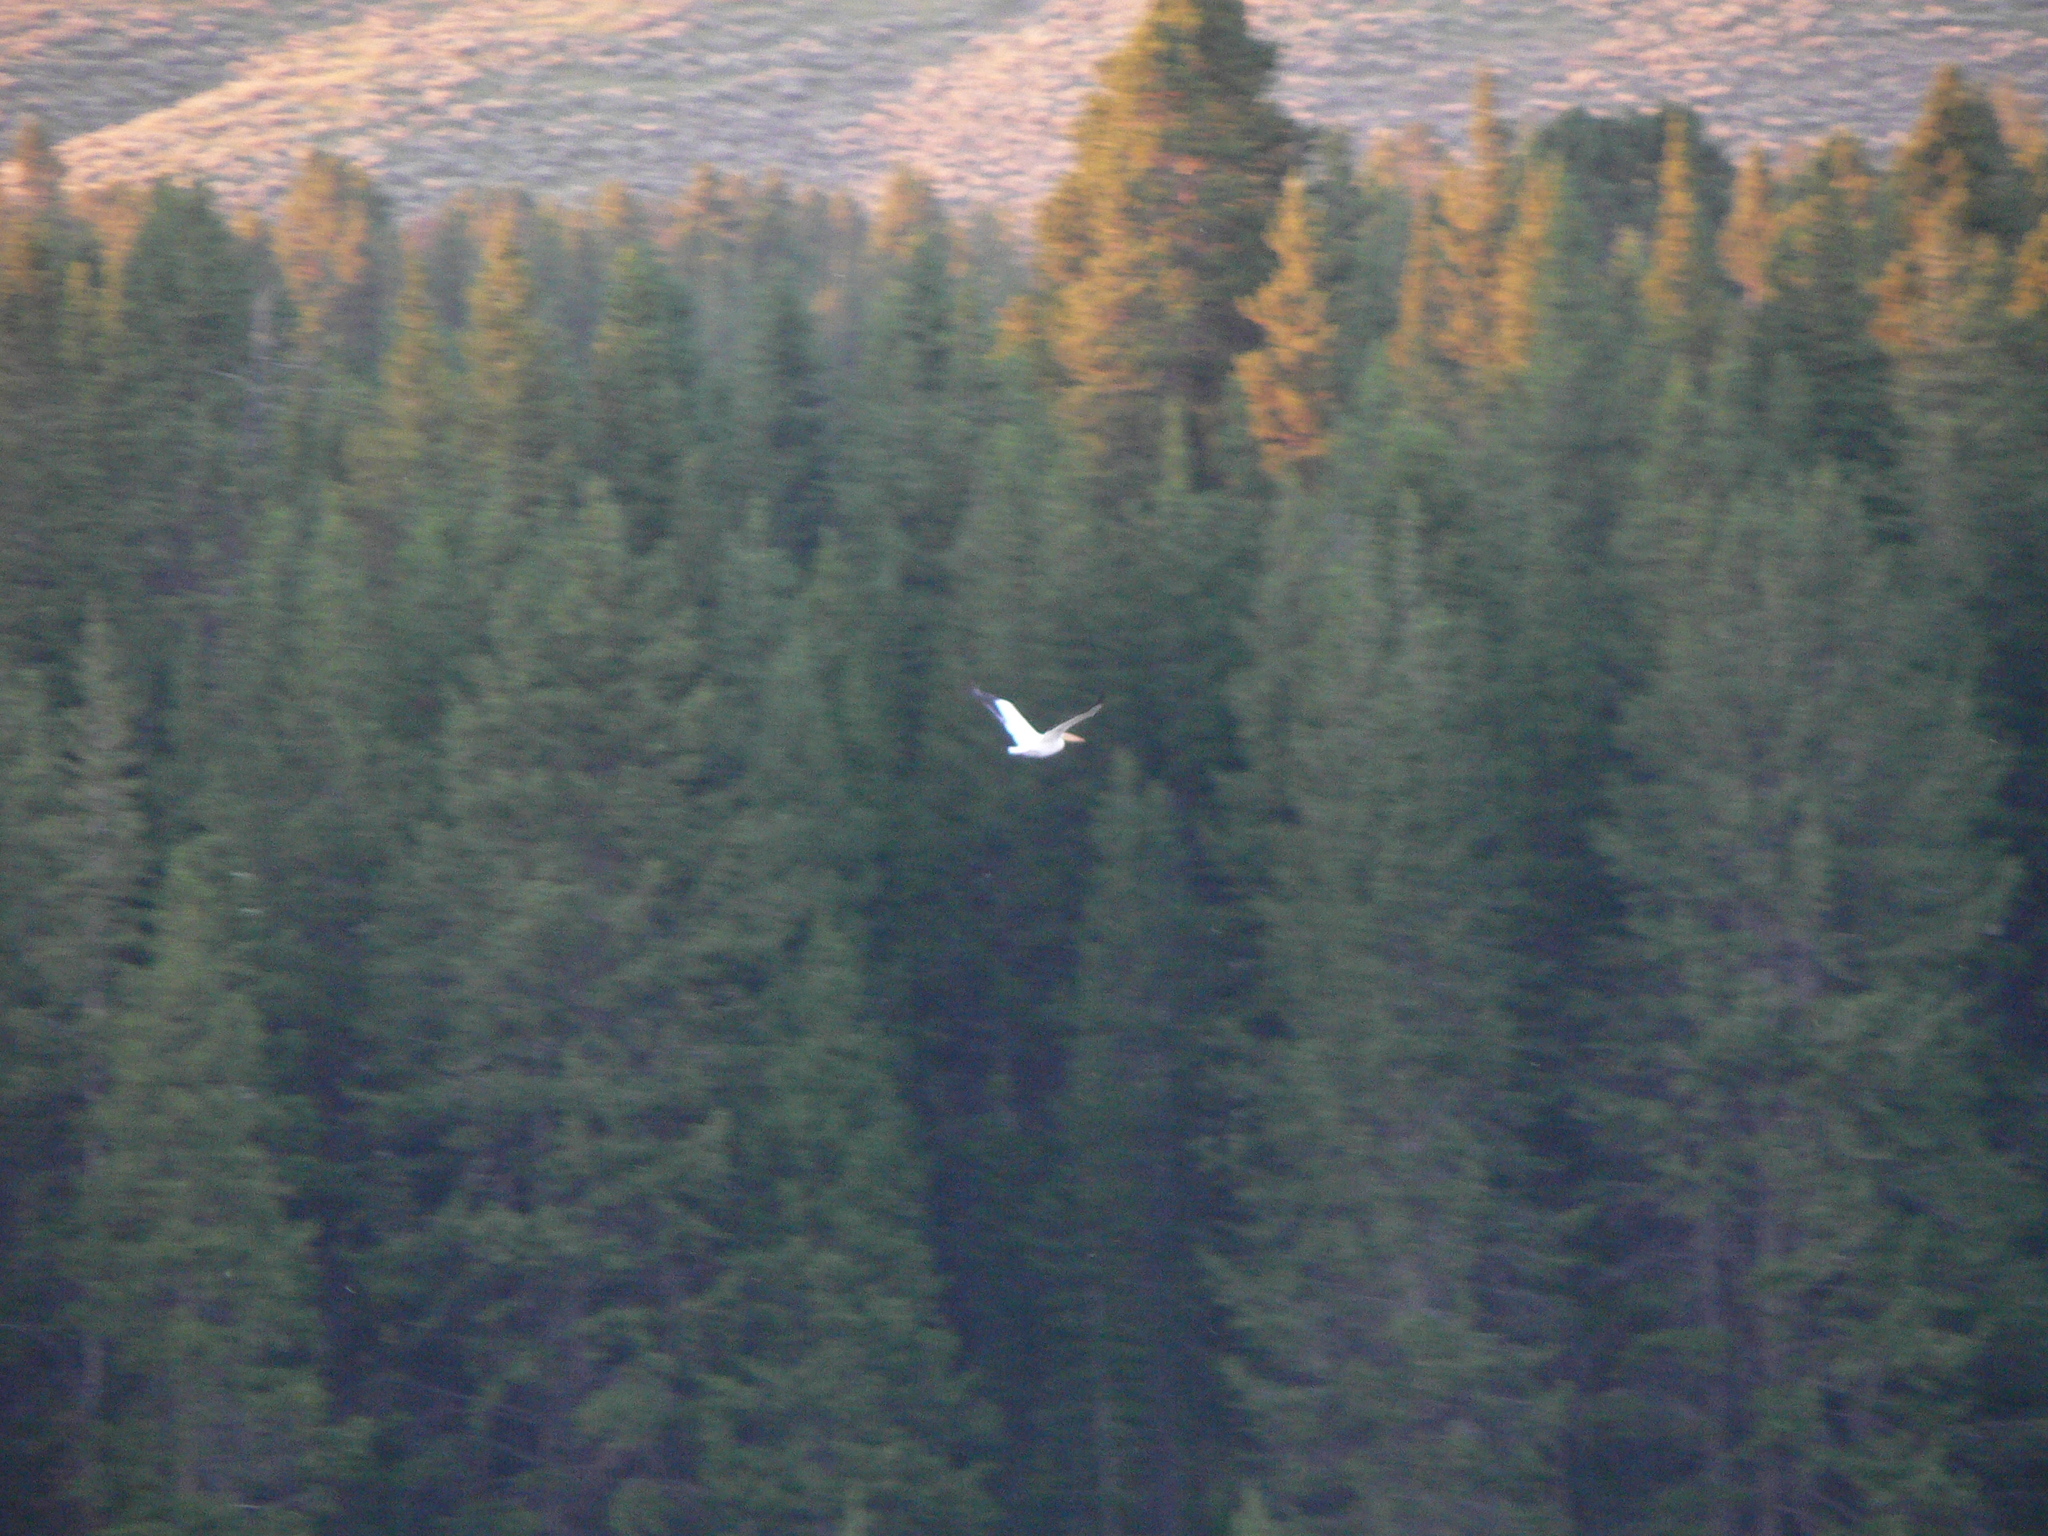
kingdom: Animalia
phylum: Chordata
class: Aves
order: Pelecaniformes
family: Pelecanidae
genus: Pelecanus
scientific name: Pelecanus erythrorhynchos
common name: American white pelican
